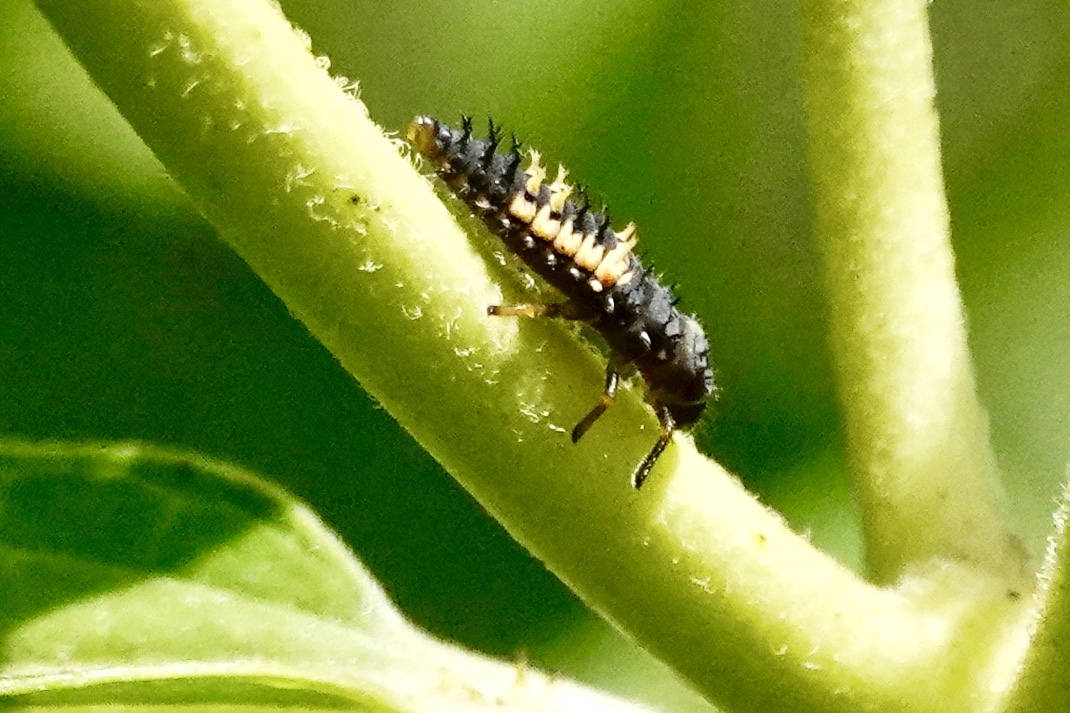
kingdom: Animalia
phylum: Arthropoda
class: Insecta
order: Coleoptera
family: Coccinellidae
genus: Harmonia
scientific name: Harmonia axyridis
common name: Harlequin ladybird
